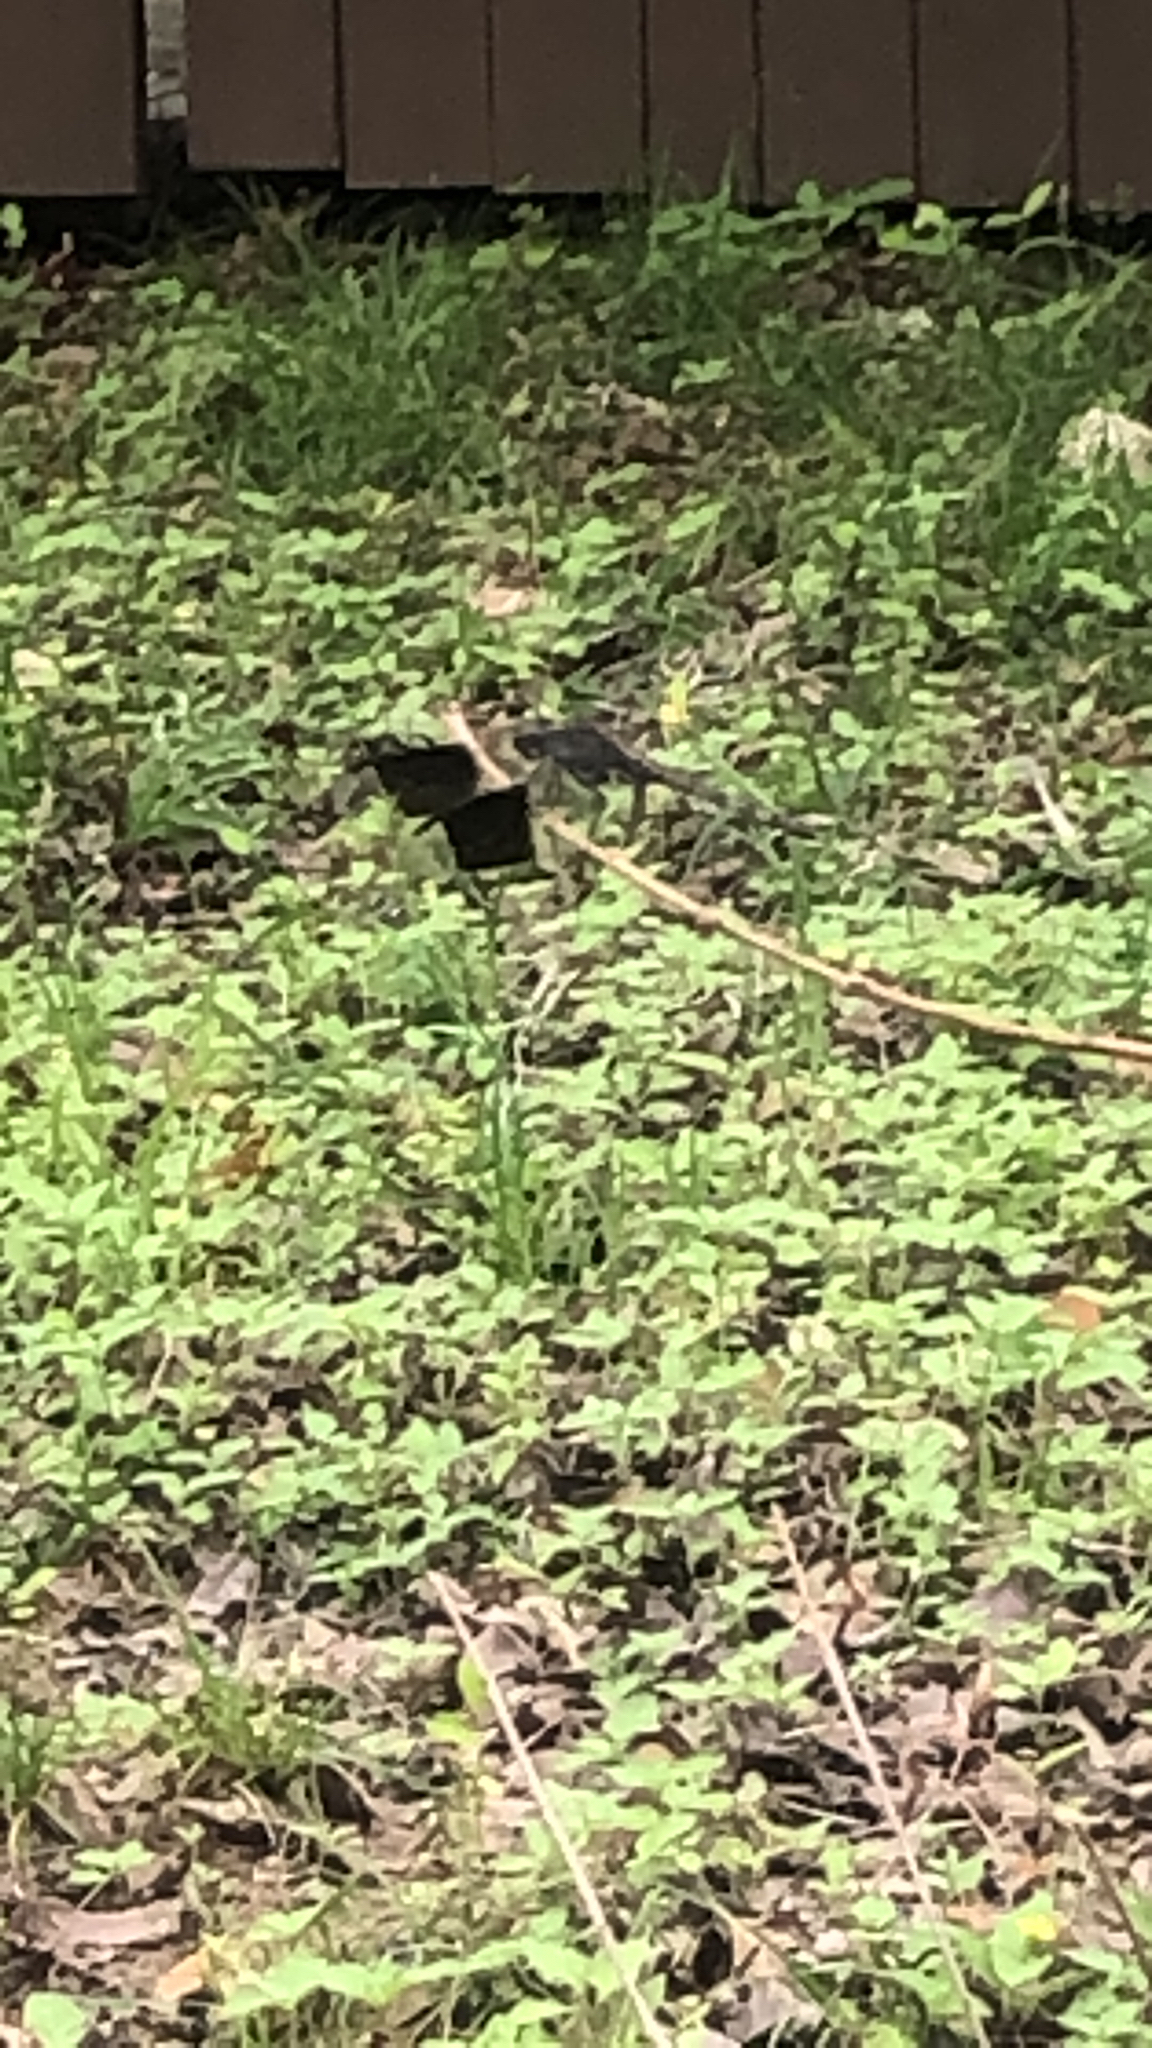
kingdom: Animalia
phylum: Arthropoda
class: Insecta
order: Odonata
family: Libellulidae
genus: Erythrodiplax
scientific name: Erythrodiplax umbrata
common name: Band-winged dragonlet
